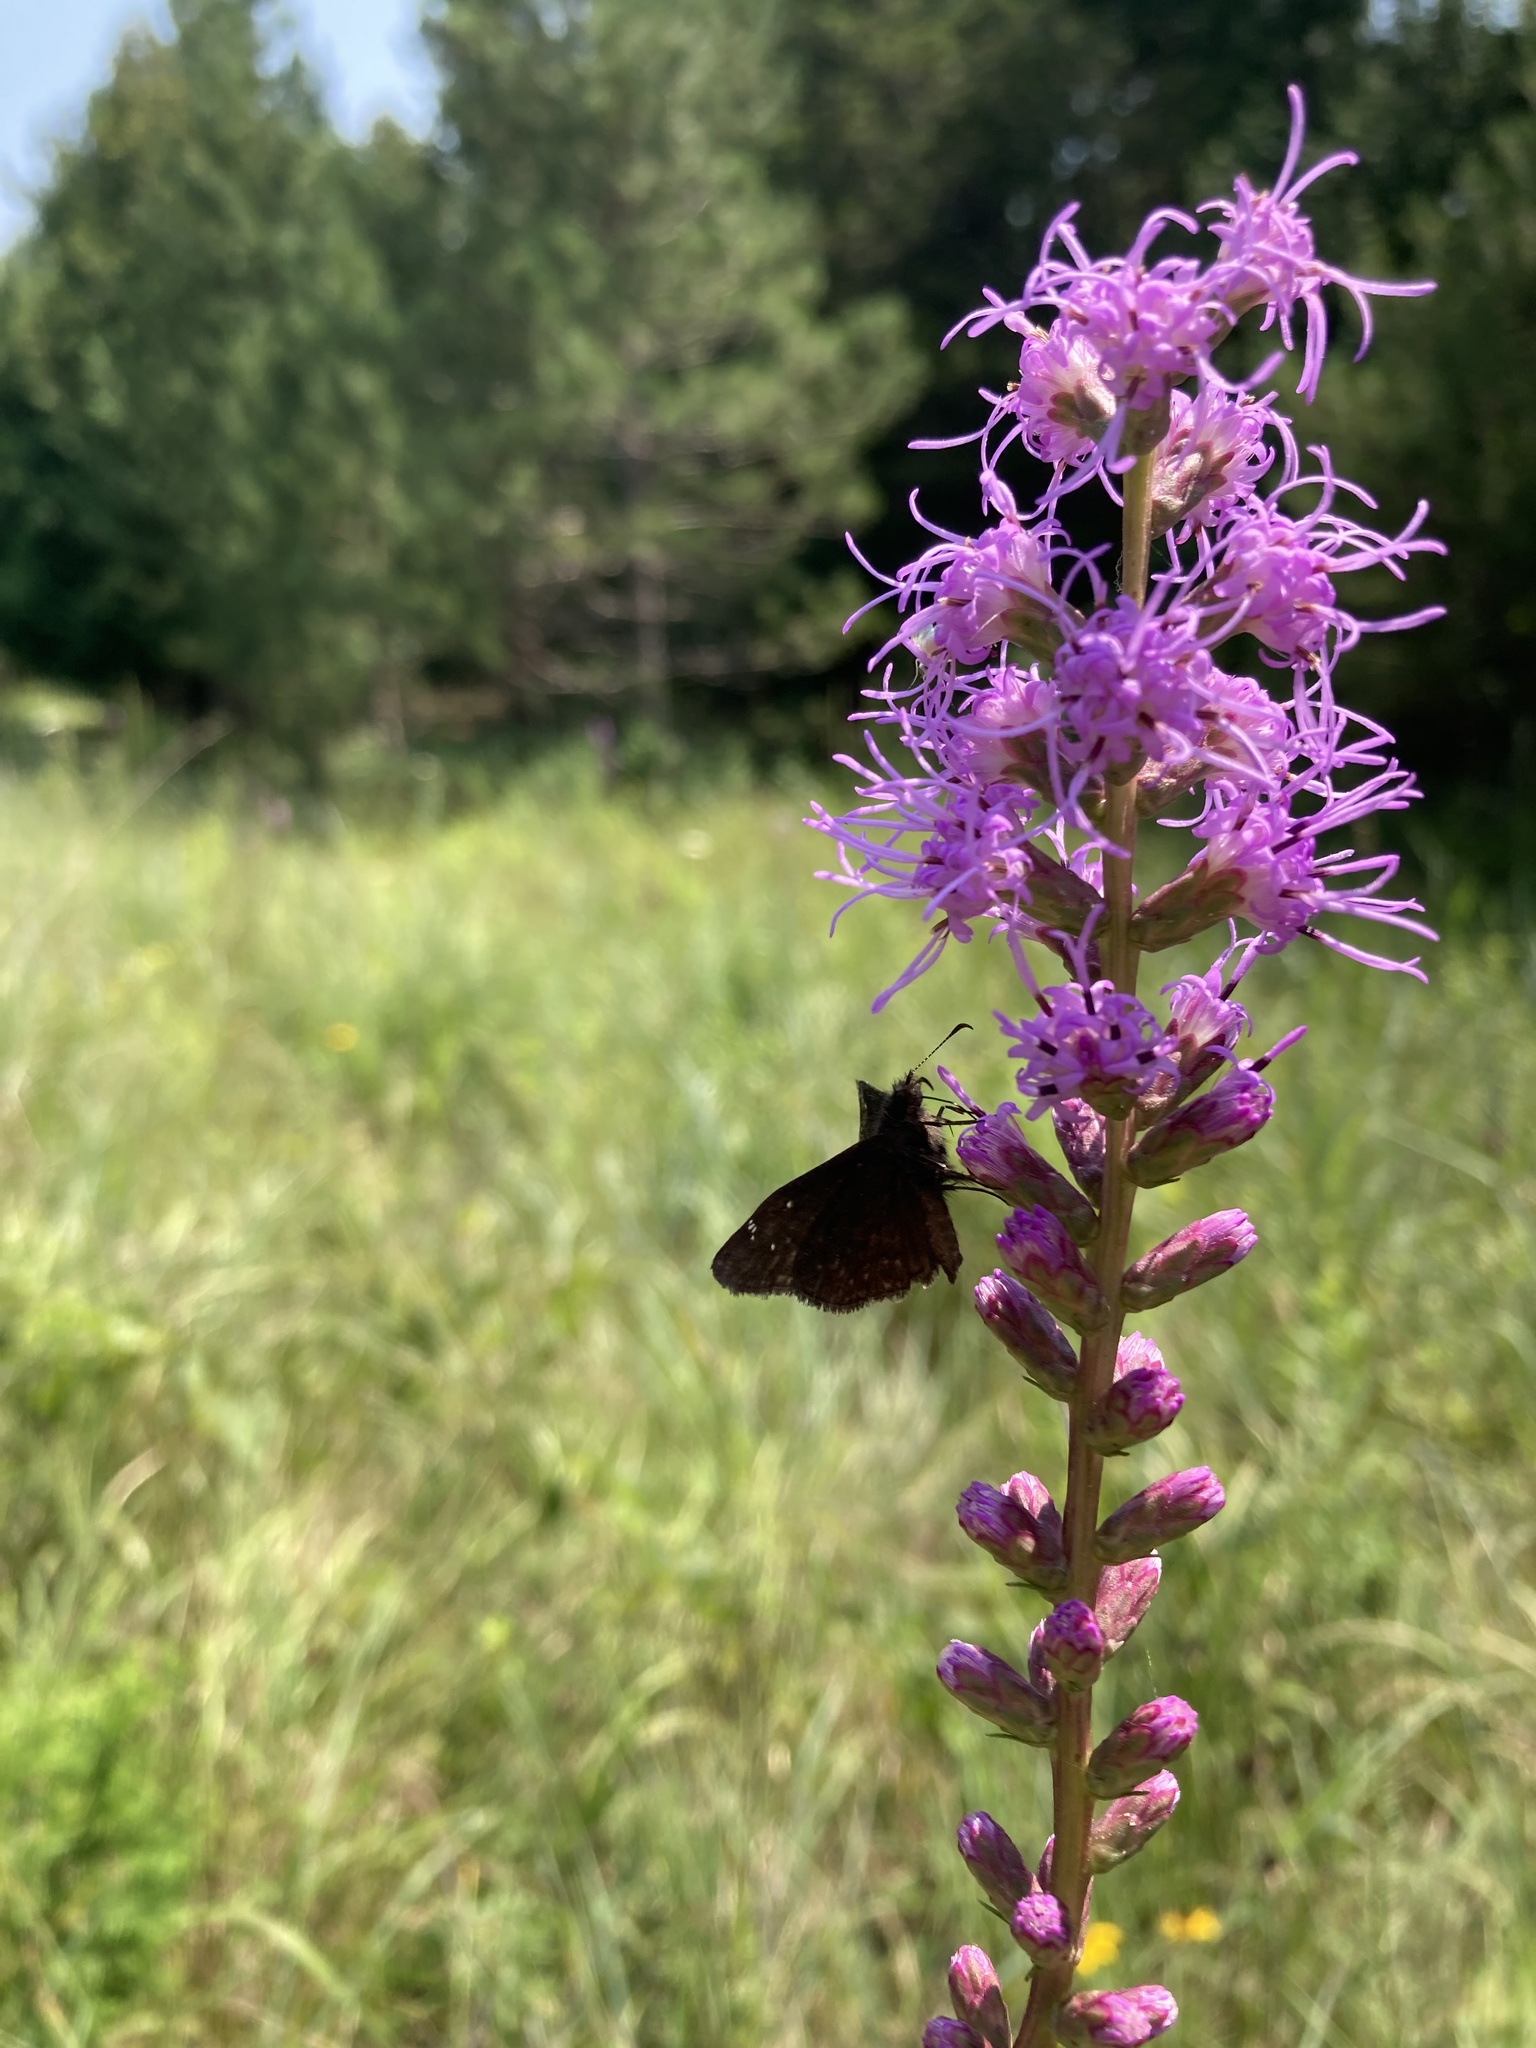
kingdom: Animalia
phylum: Arthropoda
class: Insecta
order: Lepidoptera
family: Hesperiidae
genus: Erynnis
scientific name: Erynnis baptisiae
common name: Wild indigo duskywing
